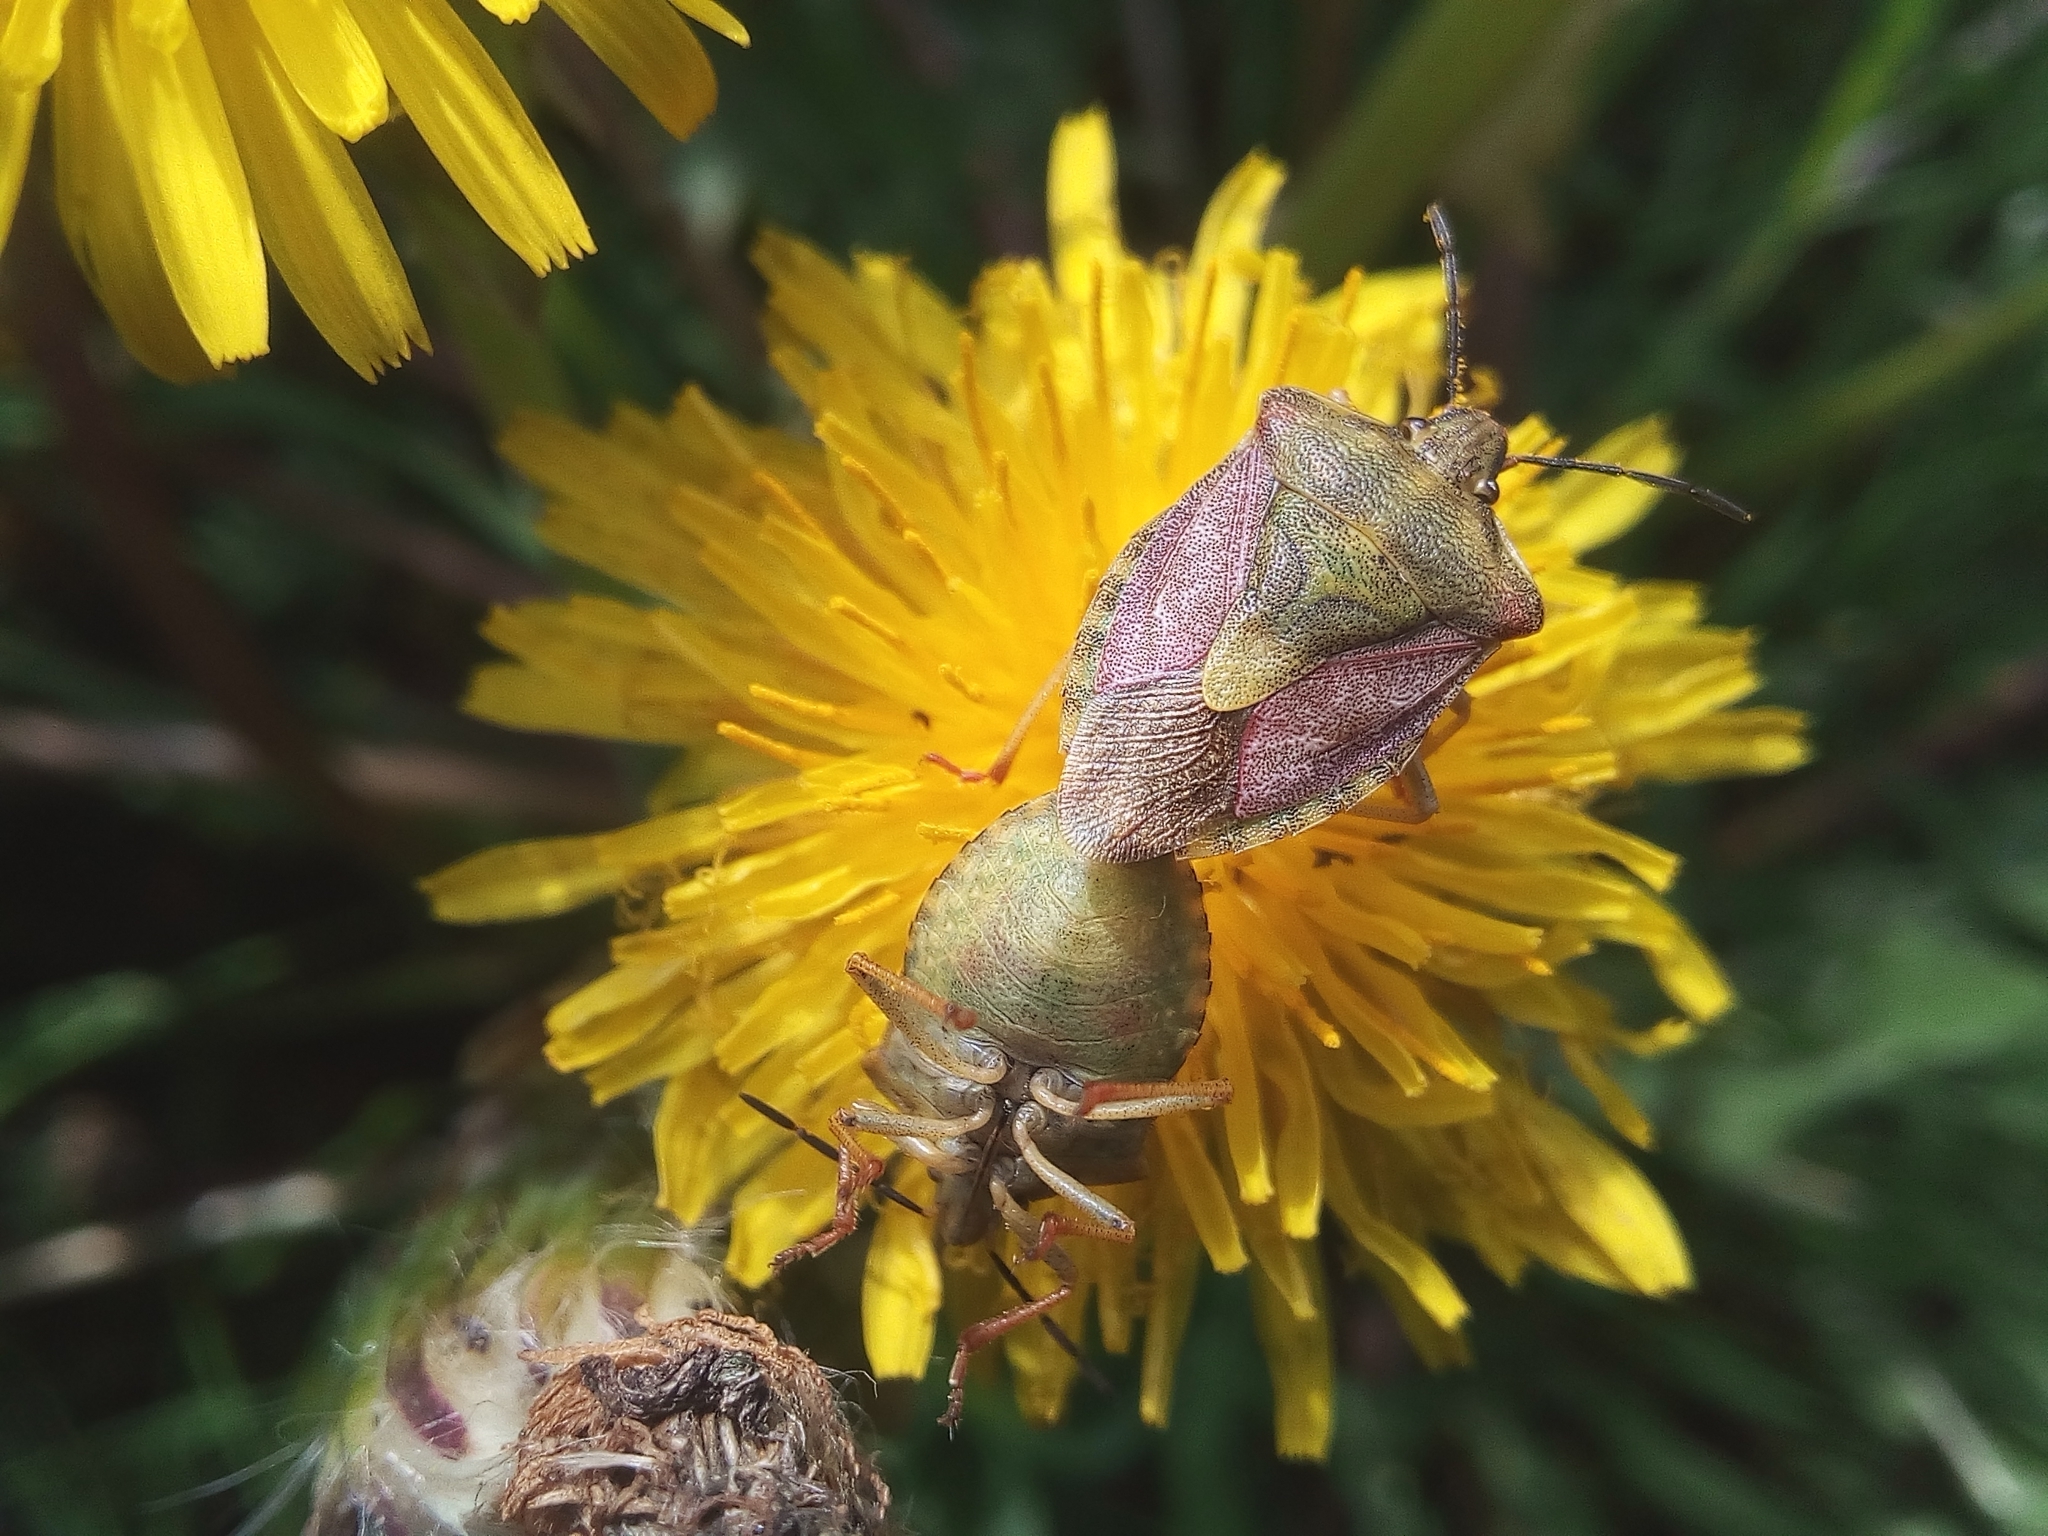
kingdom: Animalia
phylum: Arthropoda
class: Insecta
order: Hemiptera
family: Pentatomidae
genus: Carpocoris
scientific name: Carpocoris purpureipennis
